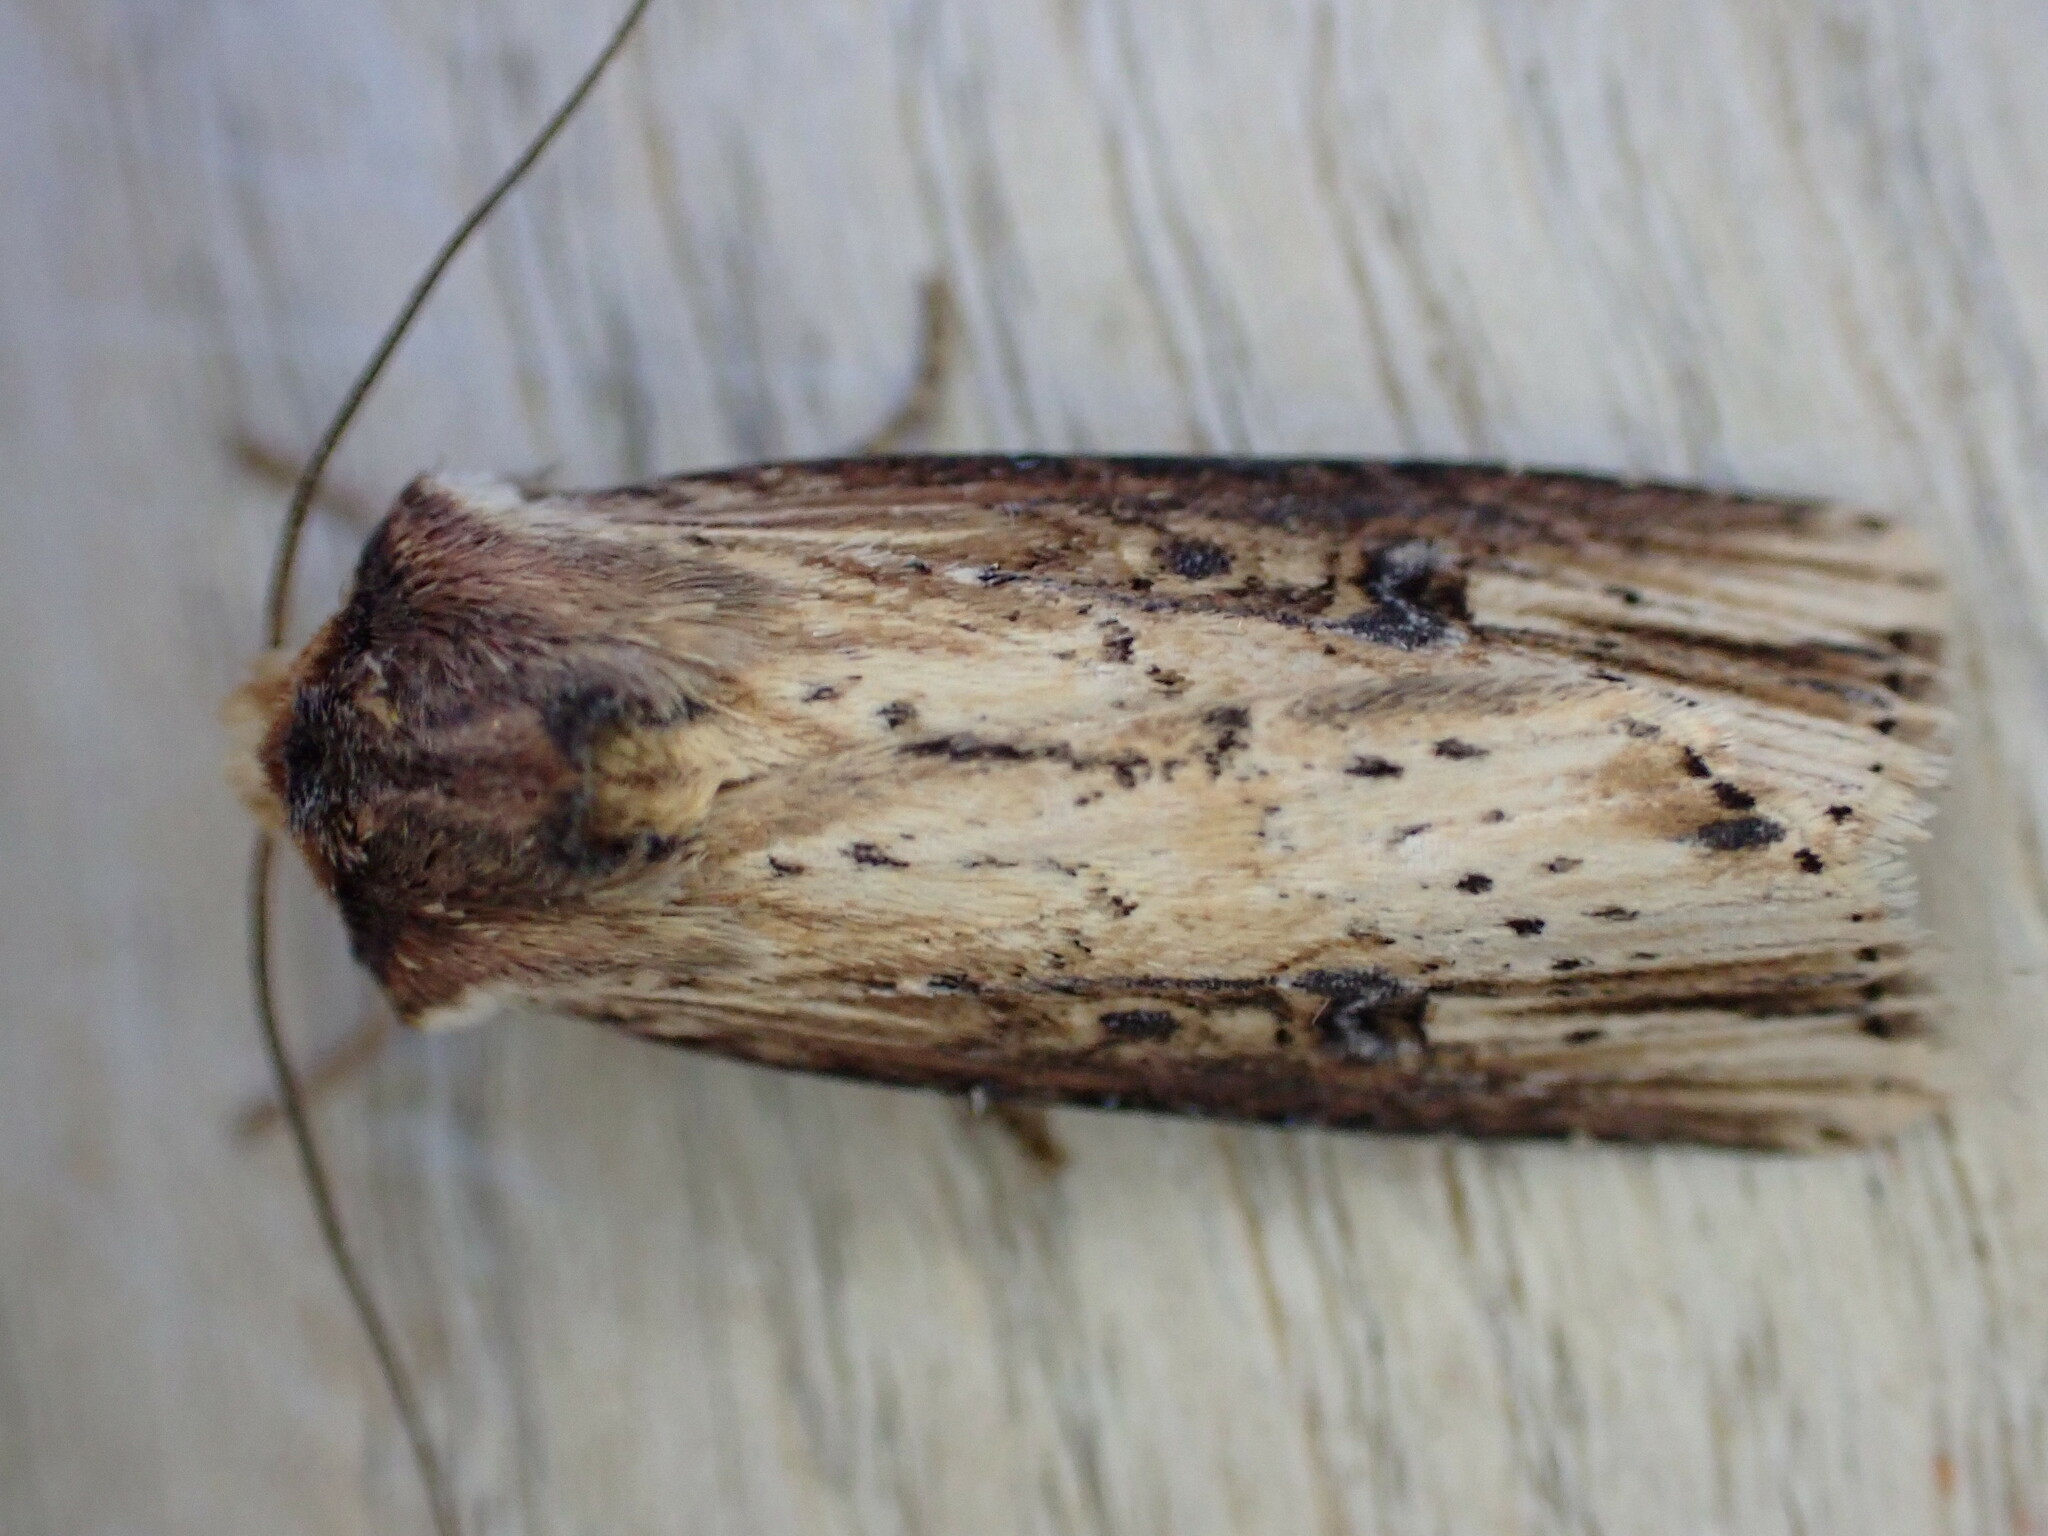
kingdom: Animalia
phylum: Arthropoda
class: Insecta
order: Lepidoptera
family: Noctuidae
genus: Axylia
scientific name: Axylia putris
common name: Flame
